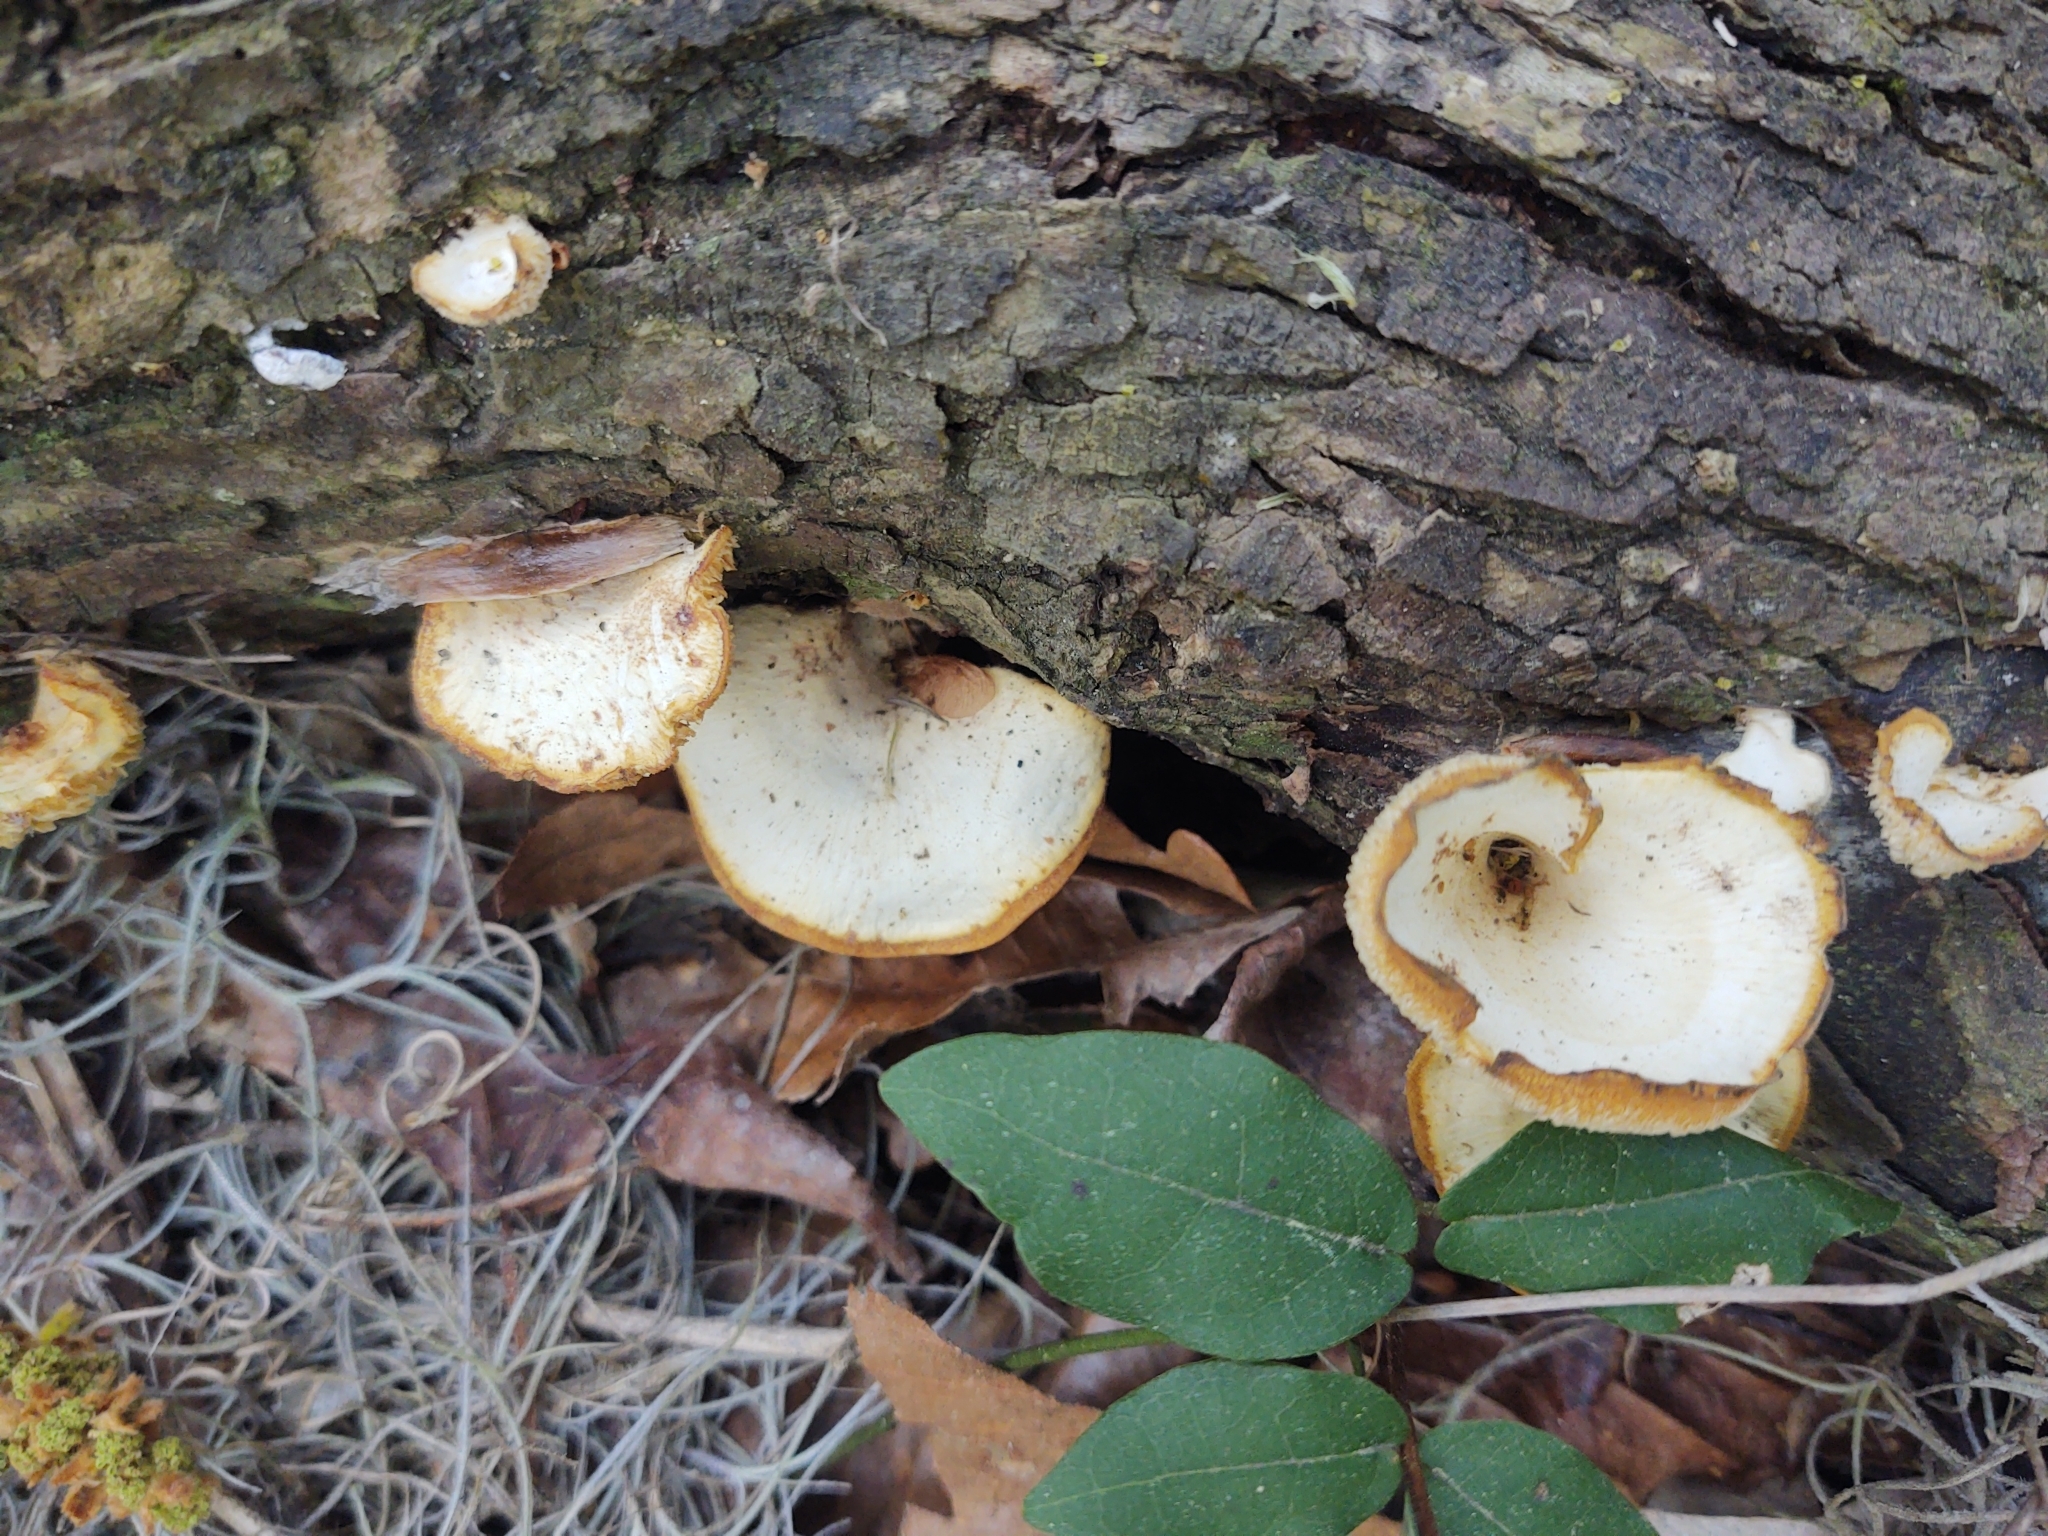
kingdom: Fungi
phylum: Basidiomycota
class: Agaricomycetes
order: Polyporales
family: Polyporaceae
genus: Favolus
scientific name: Favolus tenuiculus
